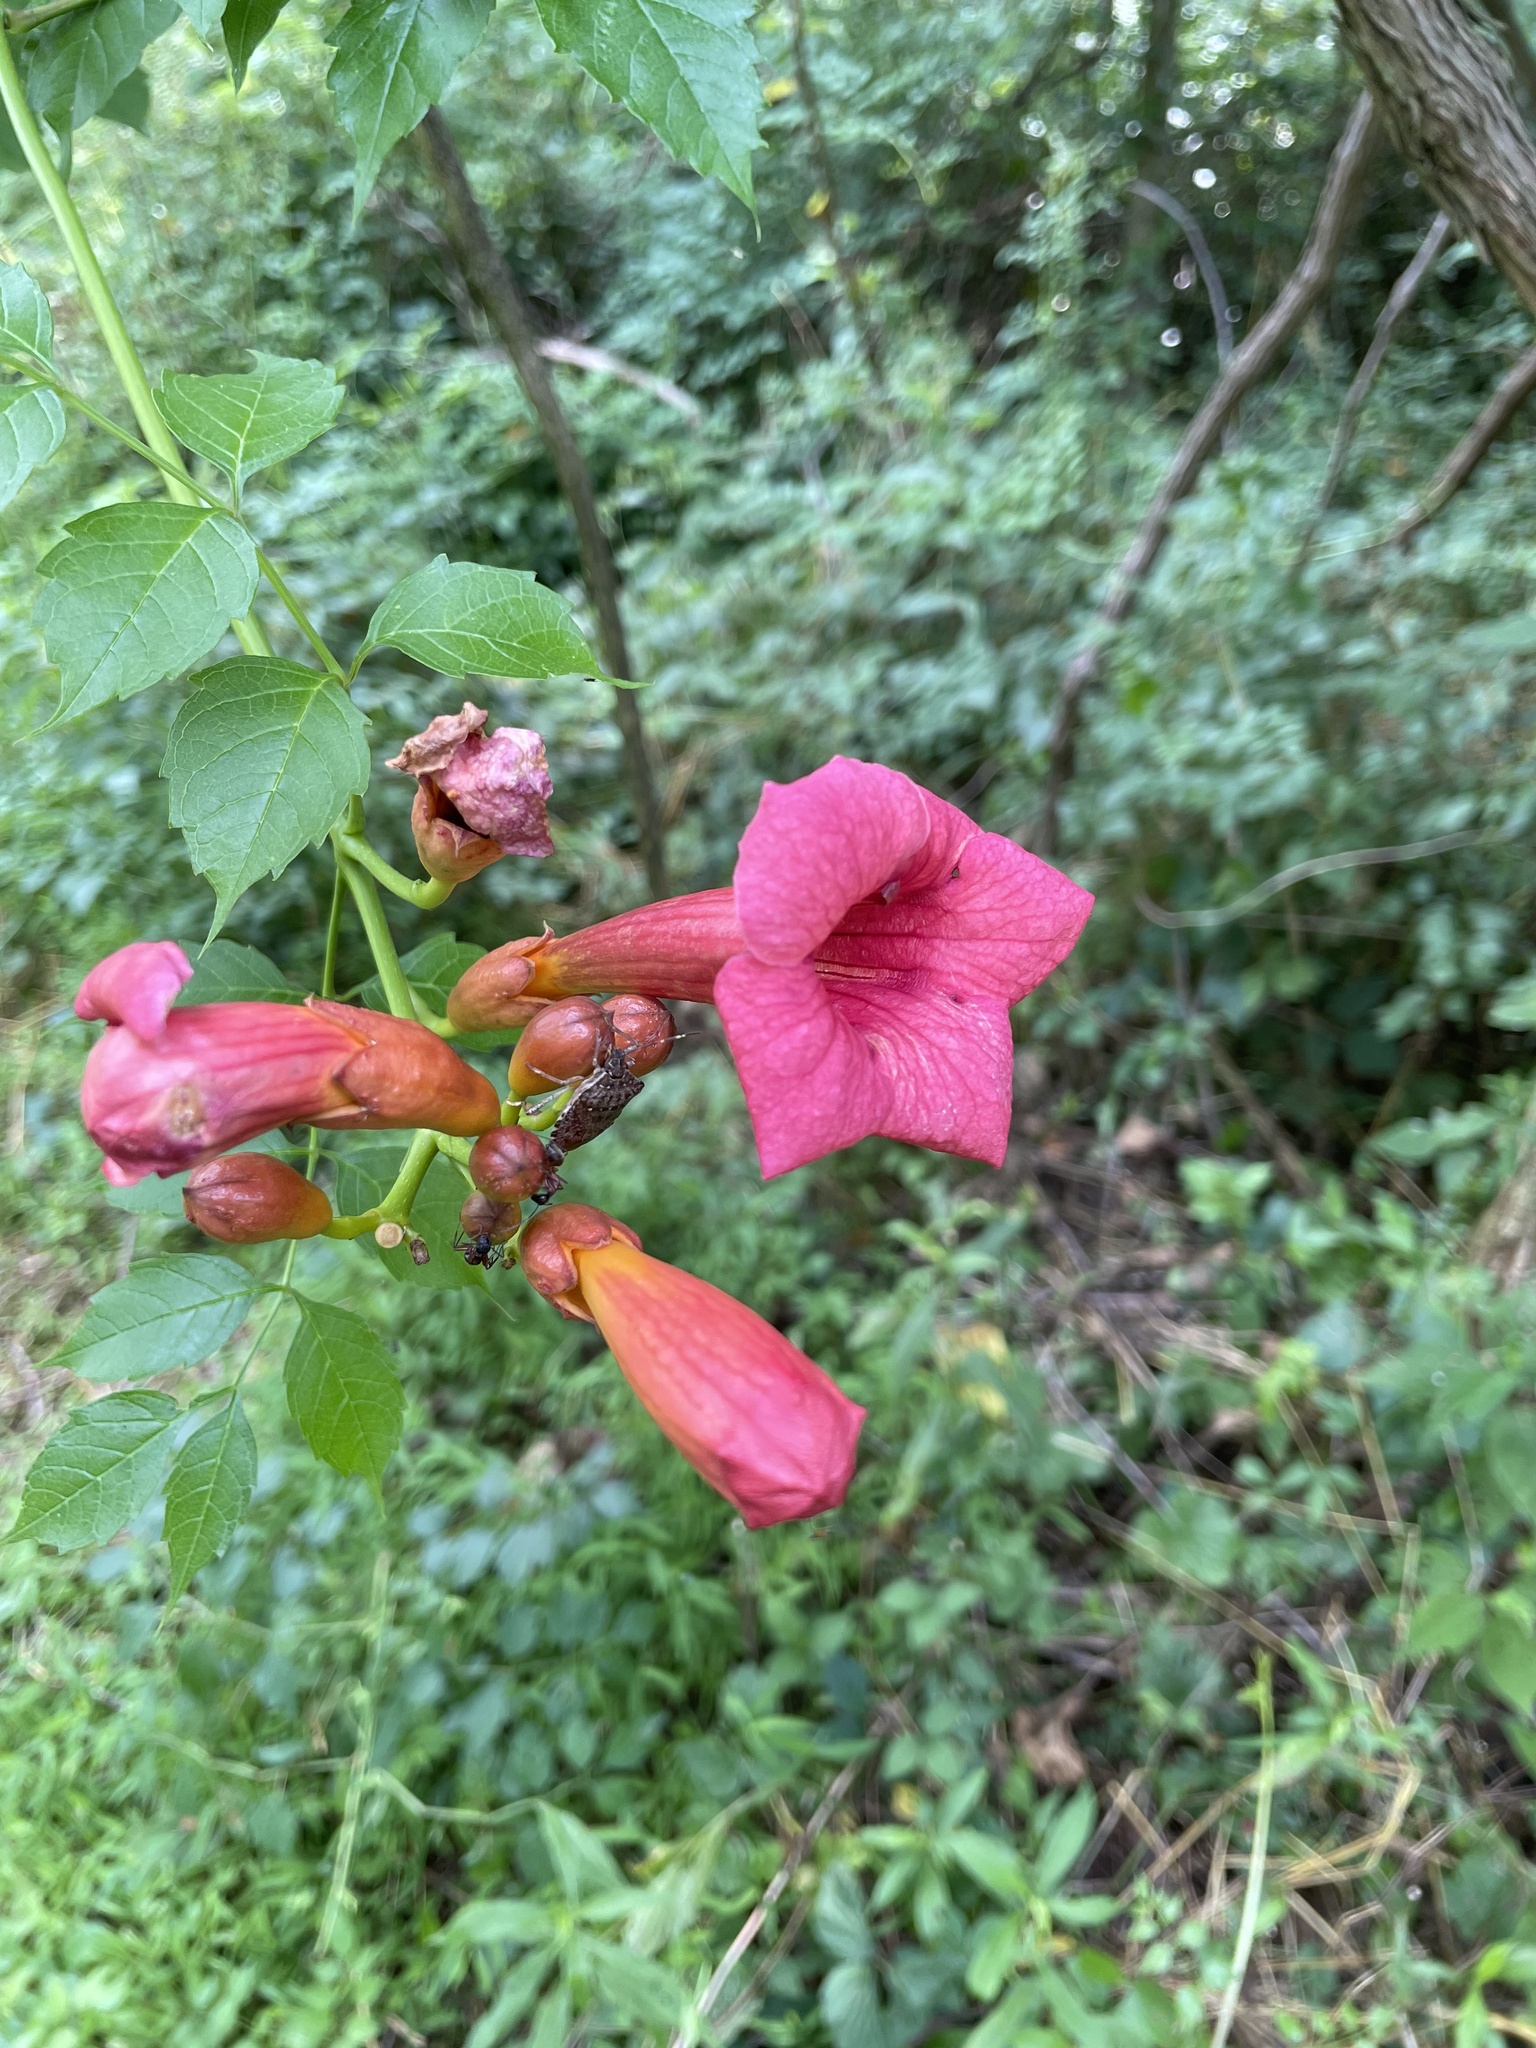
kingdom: Plantae
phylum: Tracheophyta
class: Magnoliopsida
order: Lamiales
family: Bignoniaceae
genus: Campsis
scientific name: Campsis radicans
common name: Trumpet-creeper
